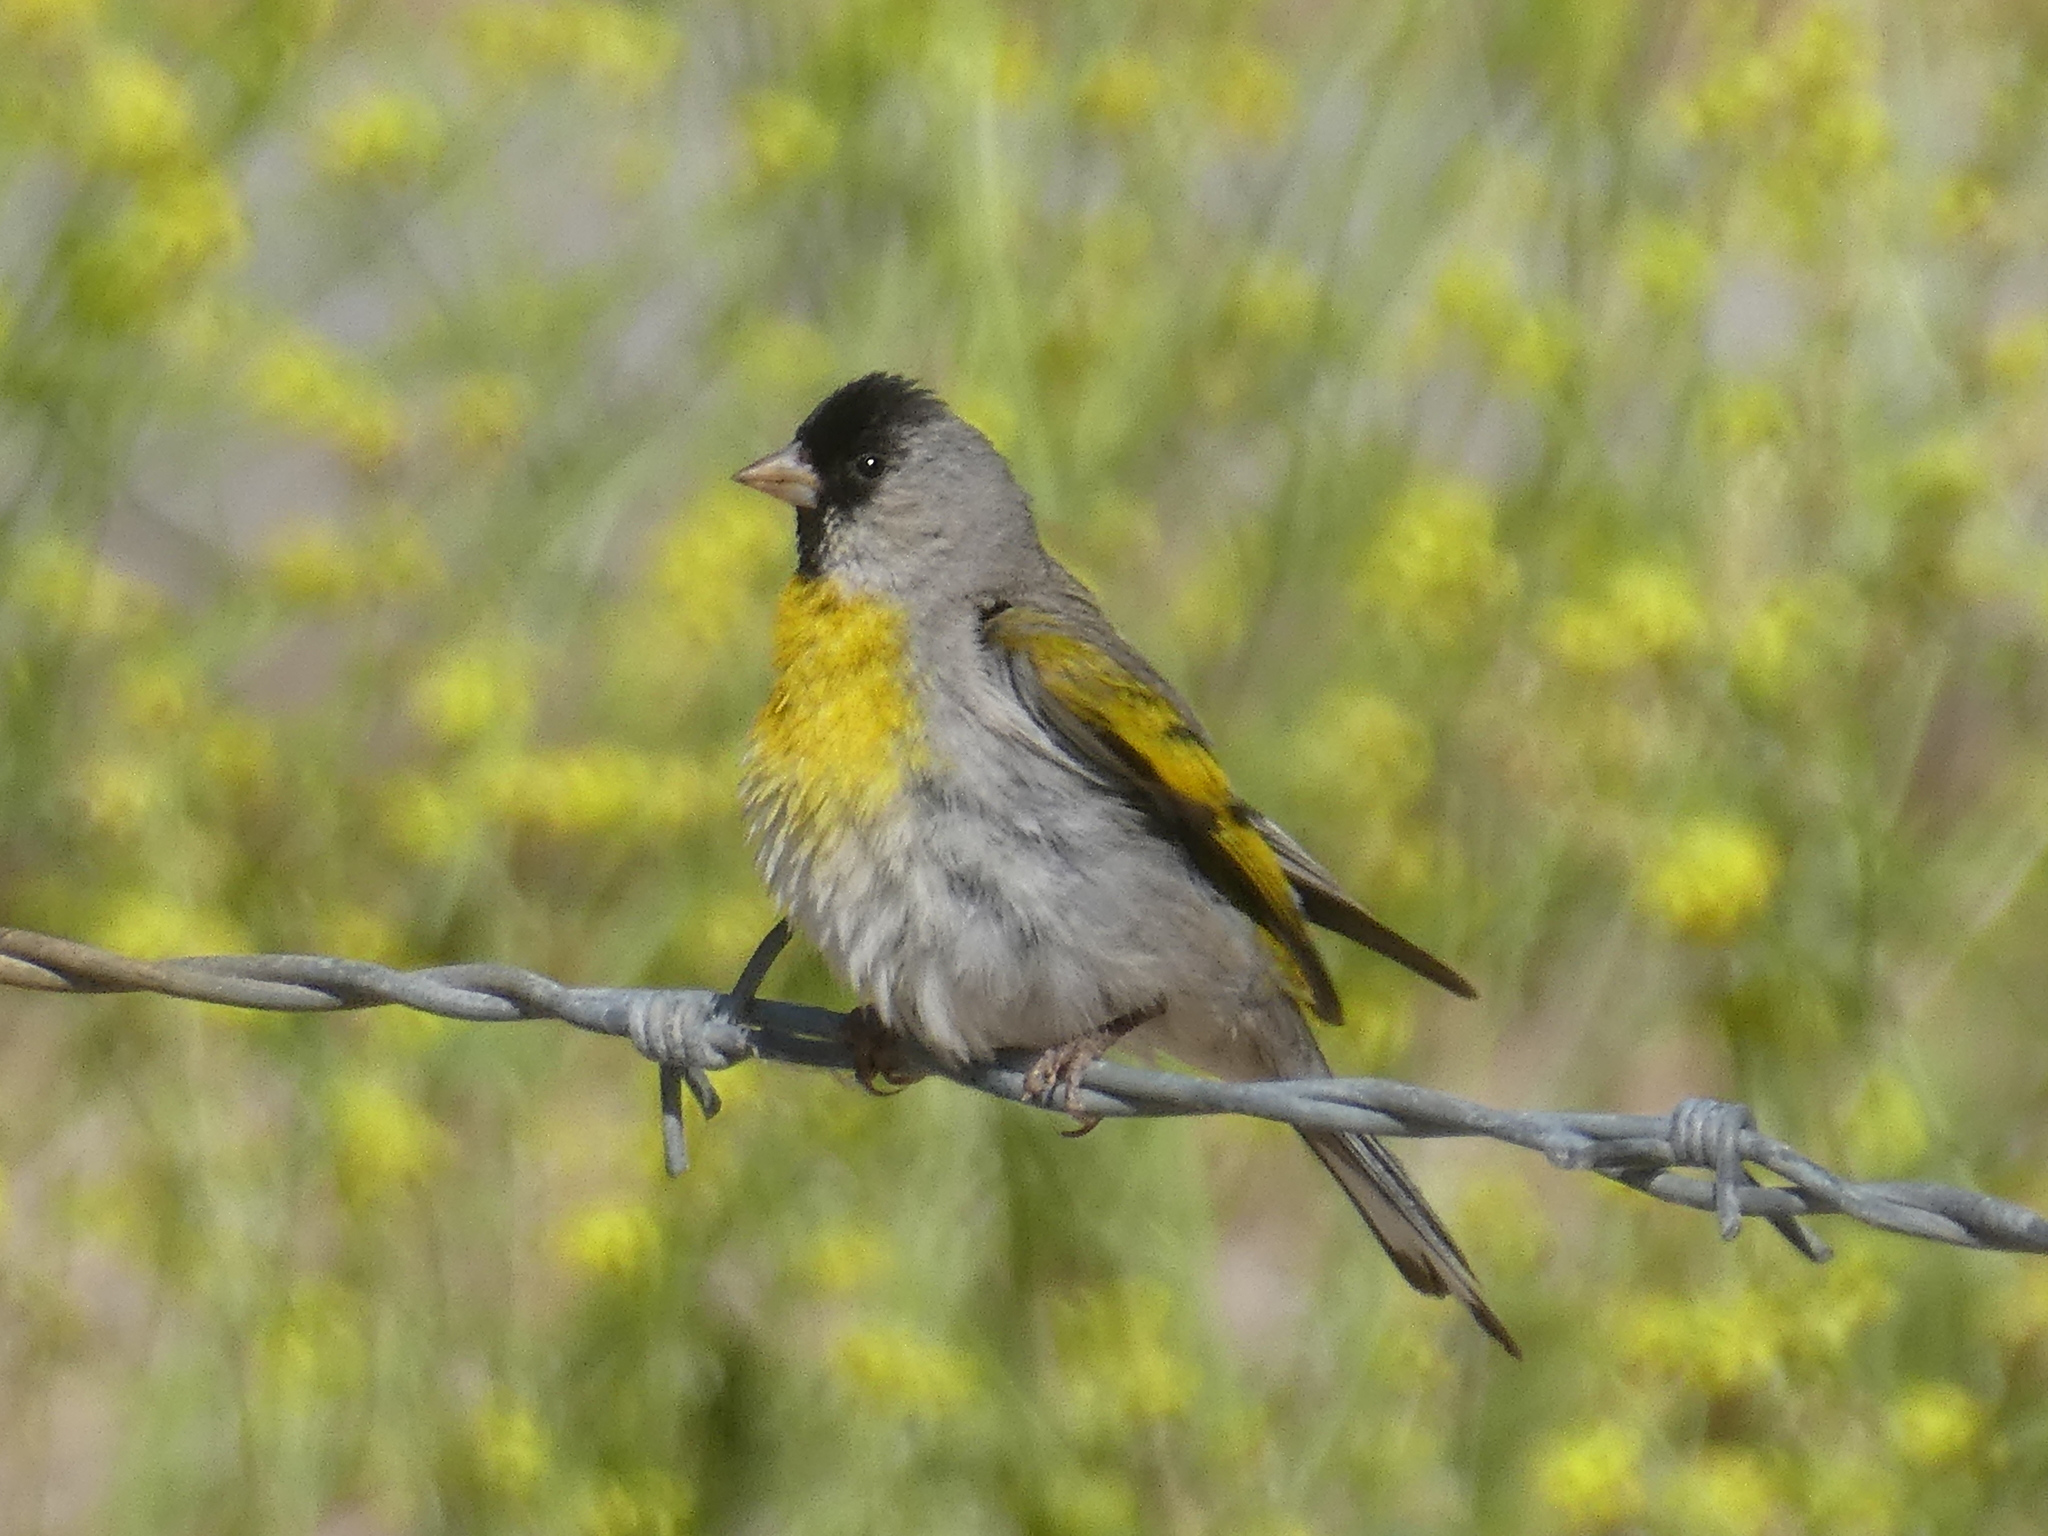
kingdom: Animalia
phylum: Chordata
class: Aves
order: Passeriformes
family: Fringillidae
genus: Spinus
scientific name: Spinus lawrencei
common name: Lawrence's goldfinch
